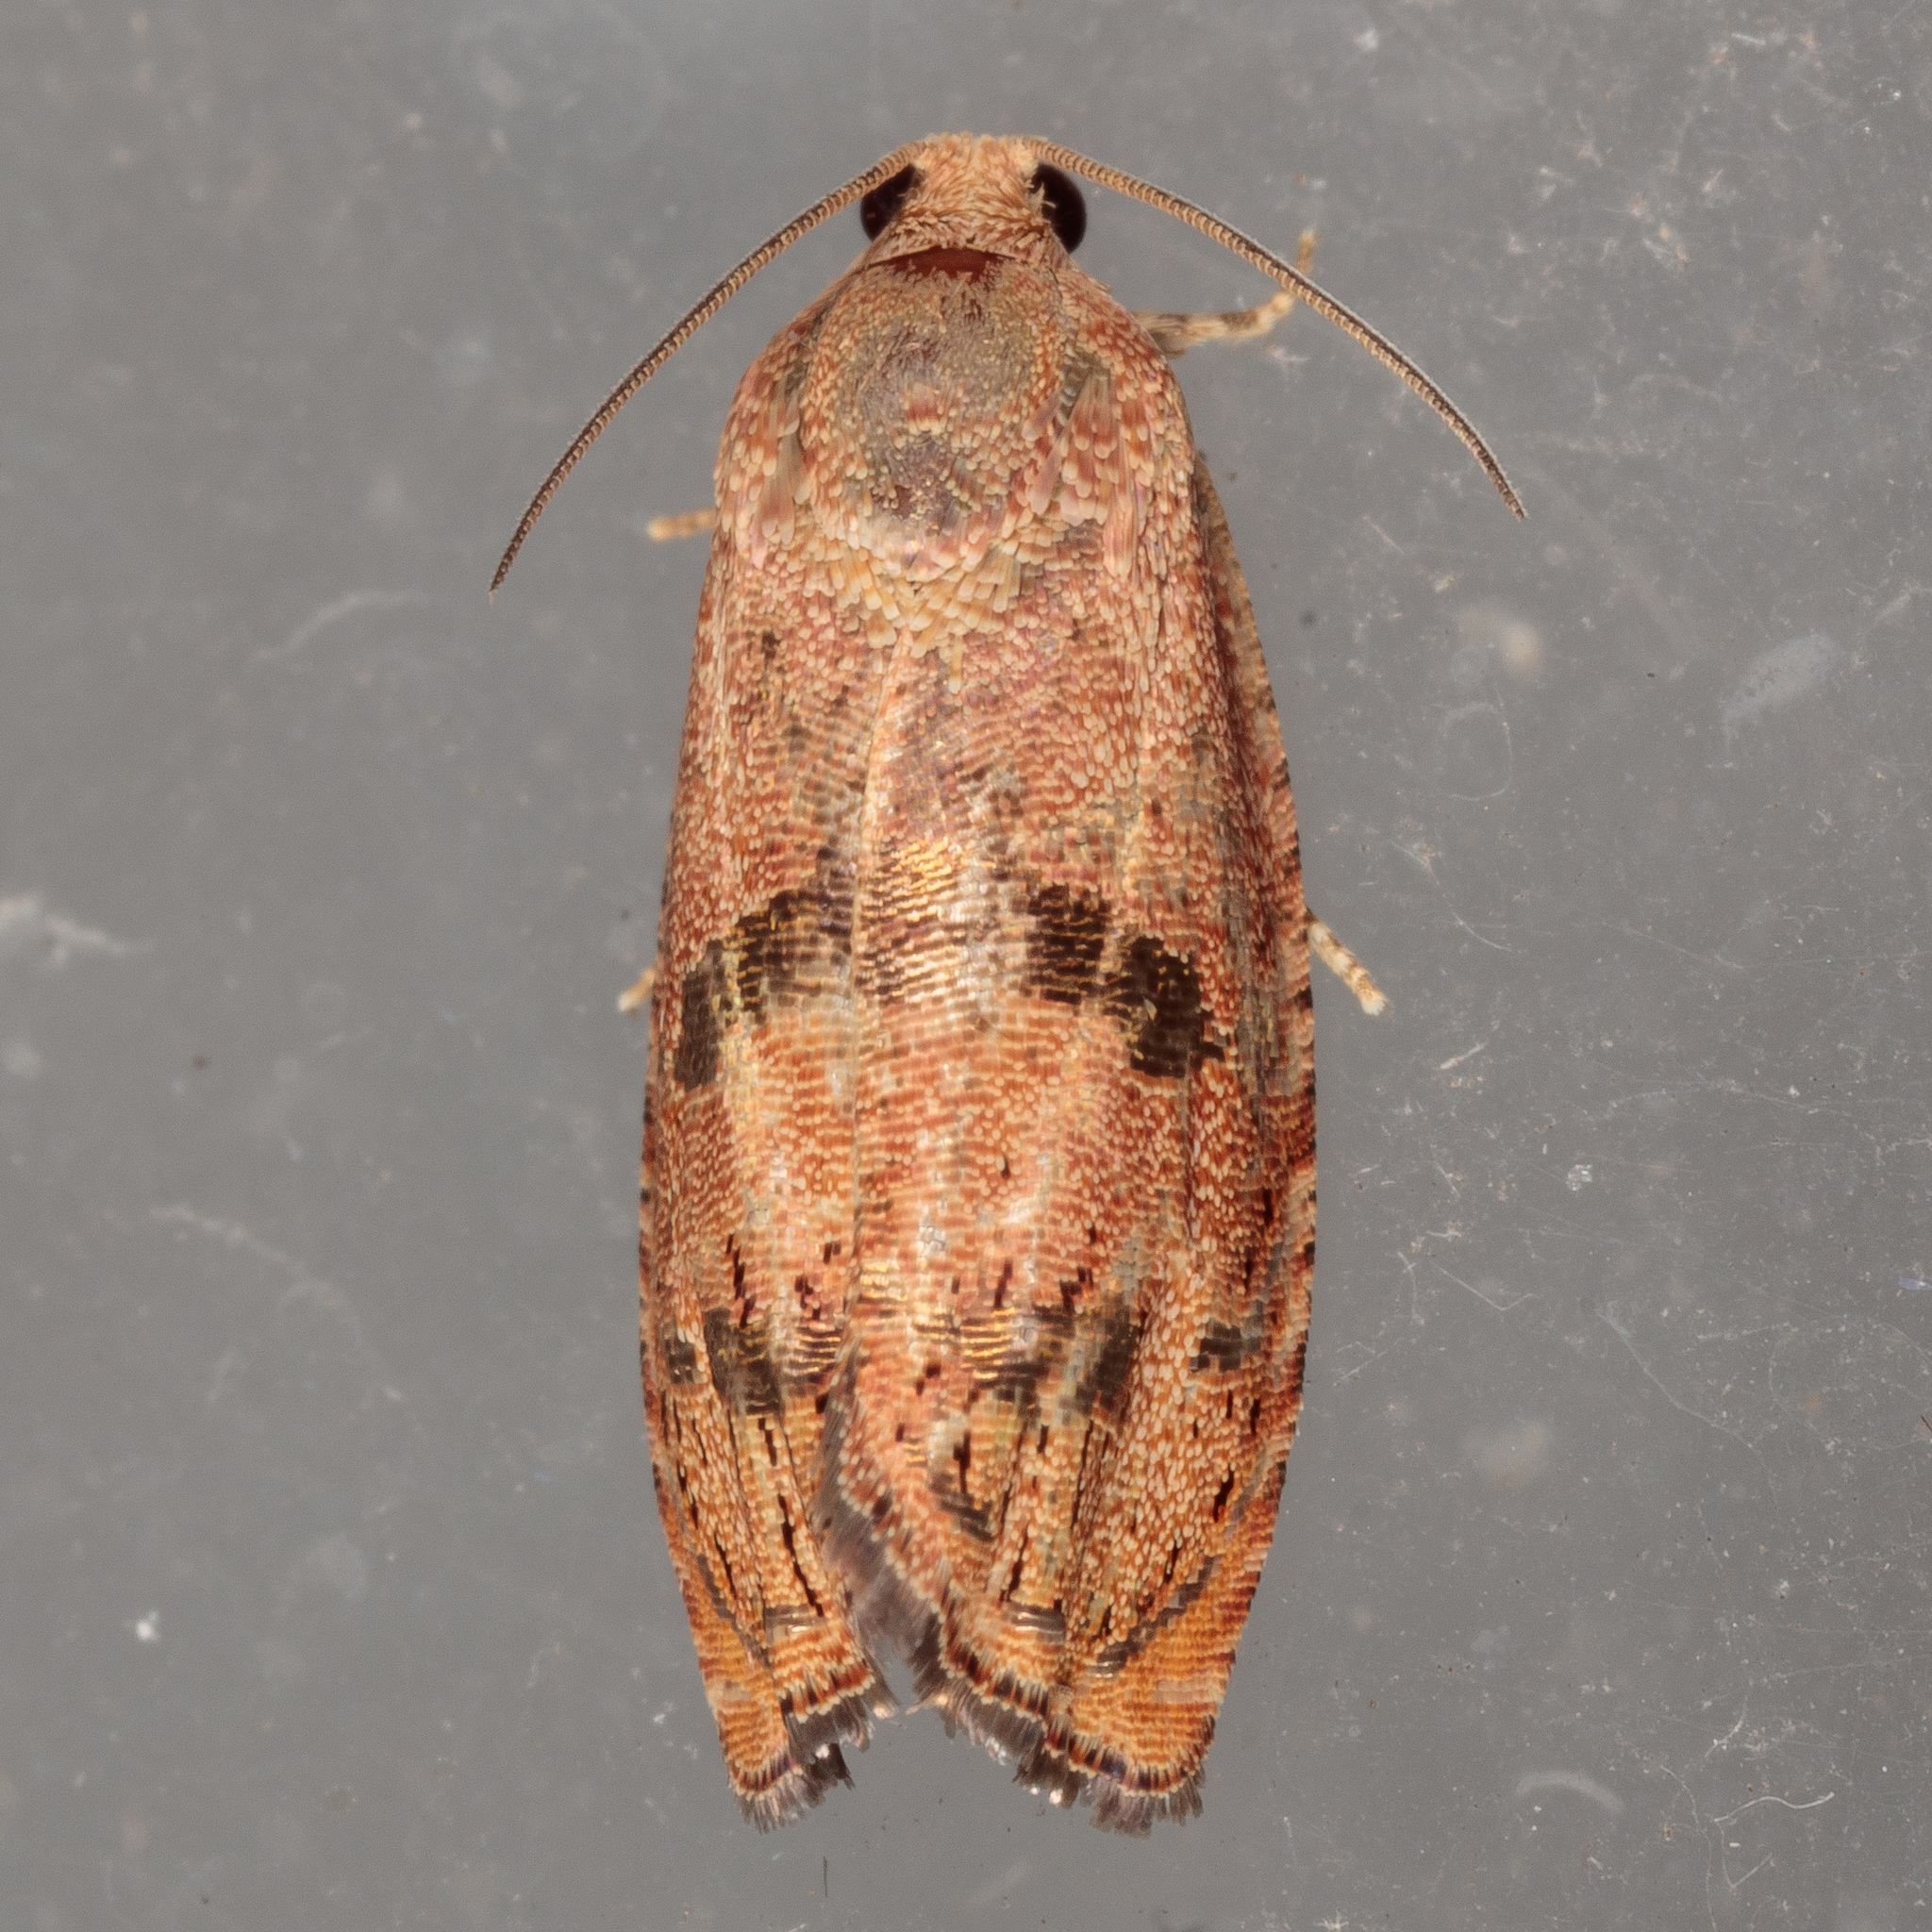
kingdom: Animalia
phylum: Arthropoda
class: Insecta
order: Lepidoptera
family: Tortricidae
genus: Cydia
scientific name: Cydia latiferreana
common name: Filbertworm moth
